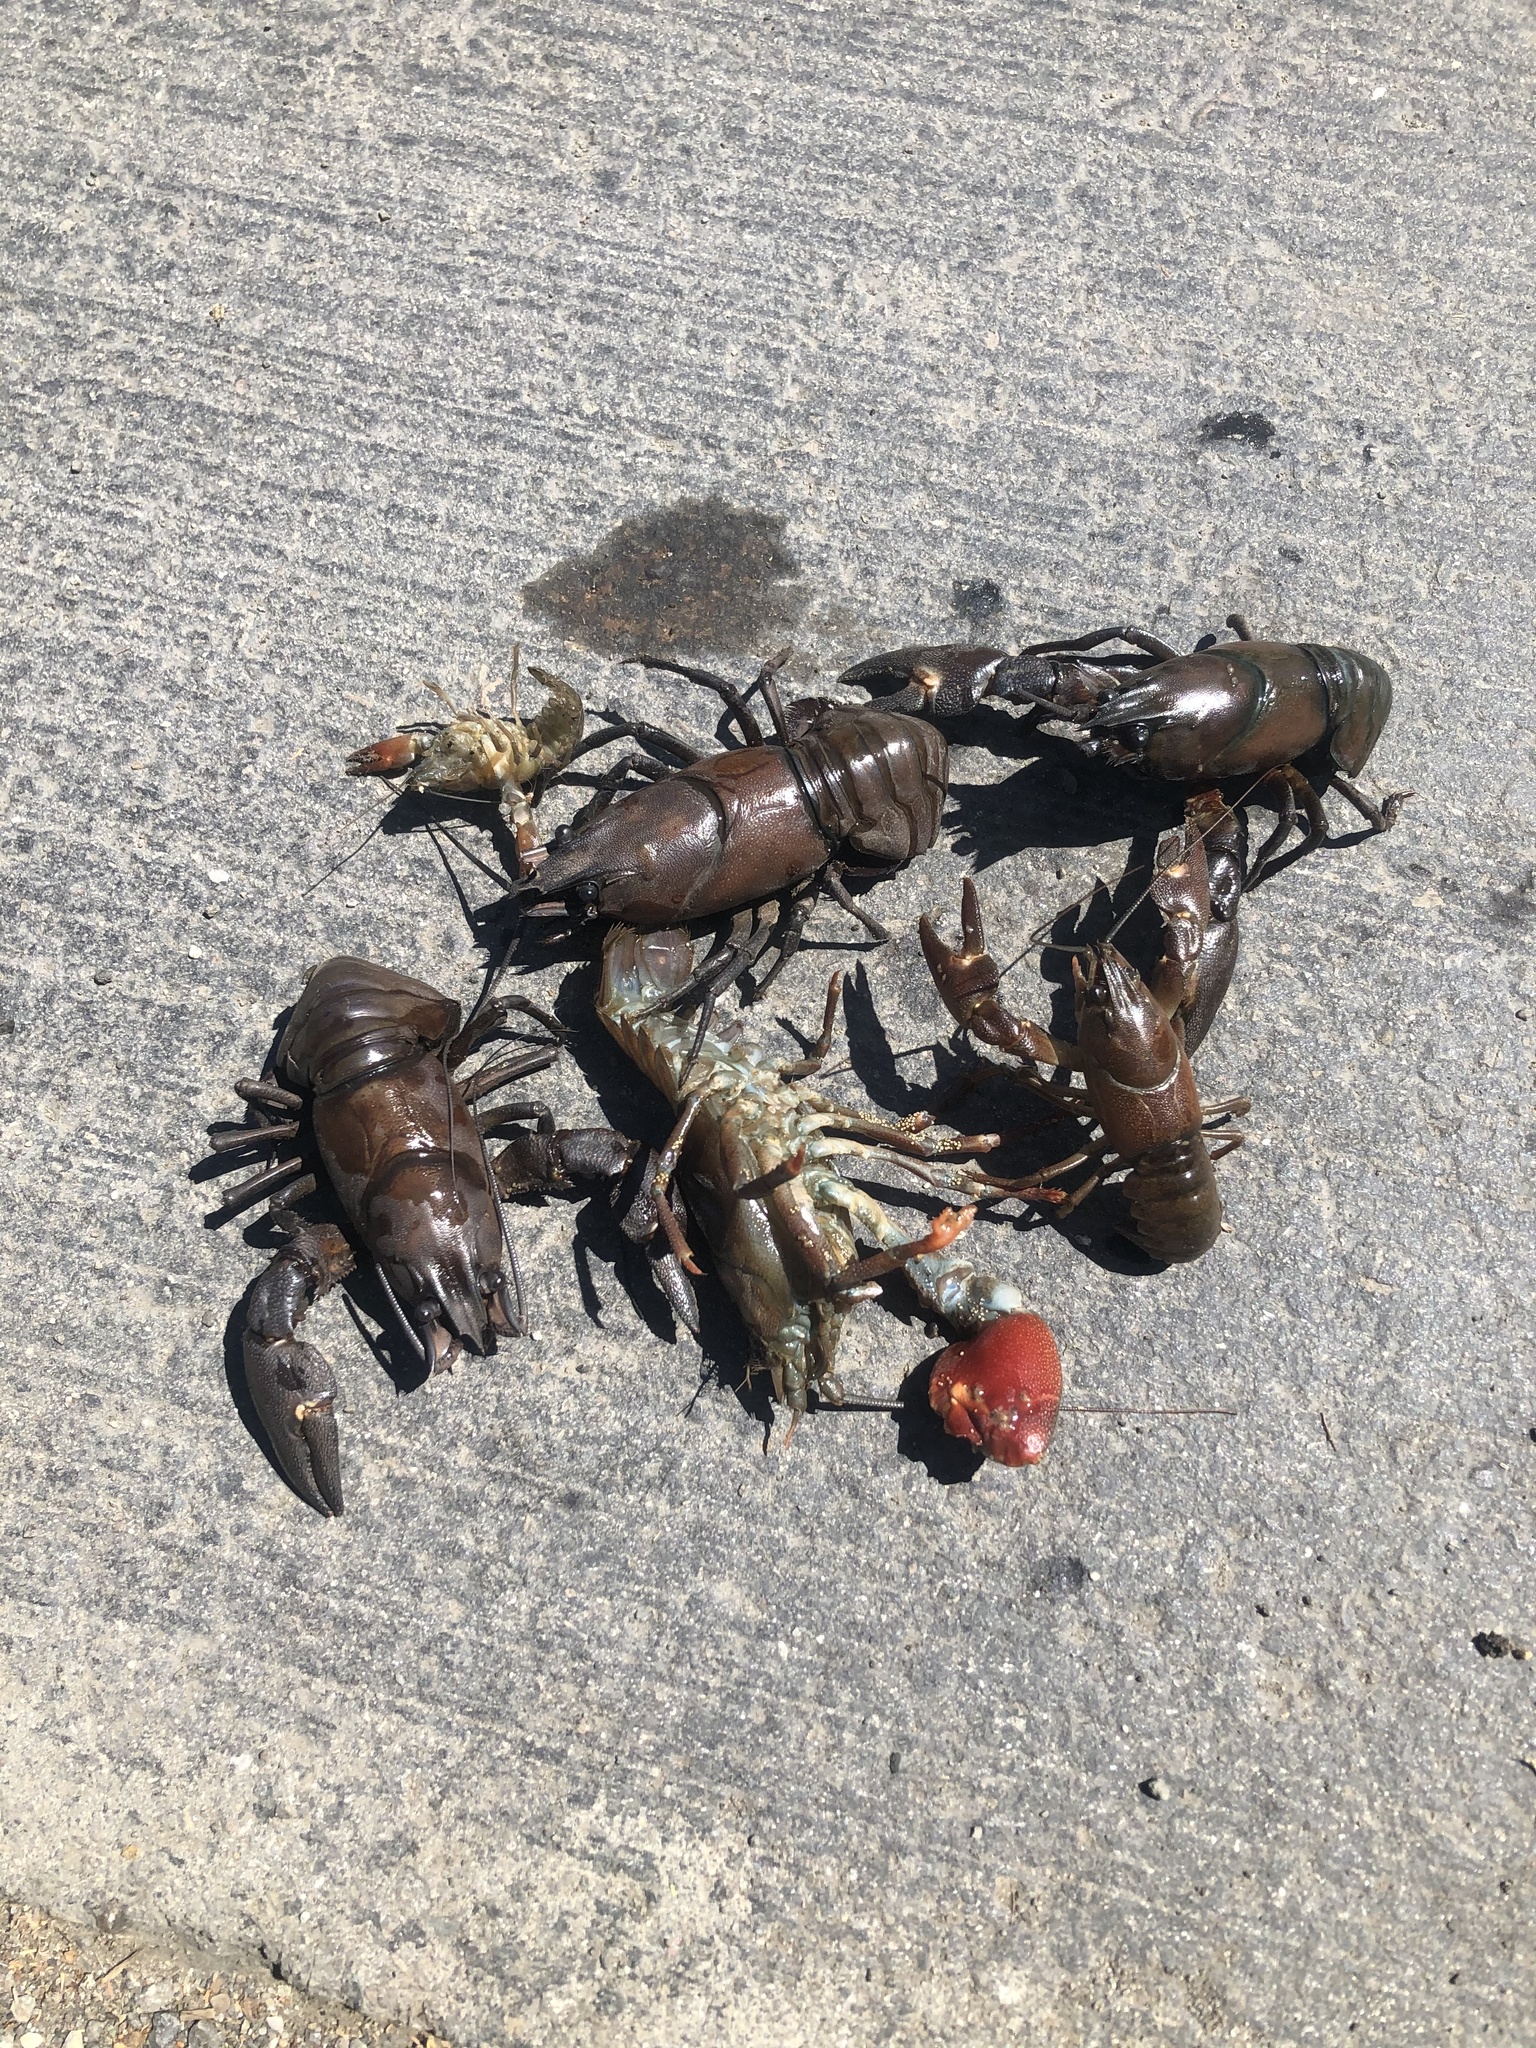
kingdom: Animalia
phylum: Arthropoda
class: Malacostraca
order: Decapoda
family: Astacidae
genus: Pacifastacus
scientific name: Pacifastacus leniusculus
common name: Signal crayfish
